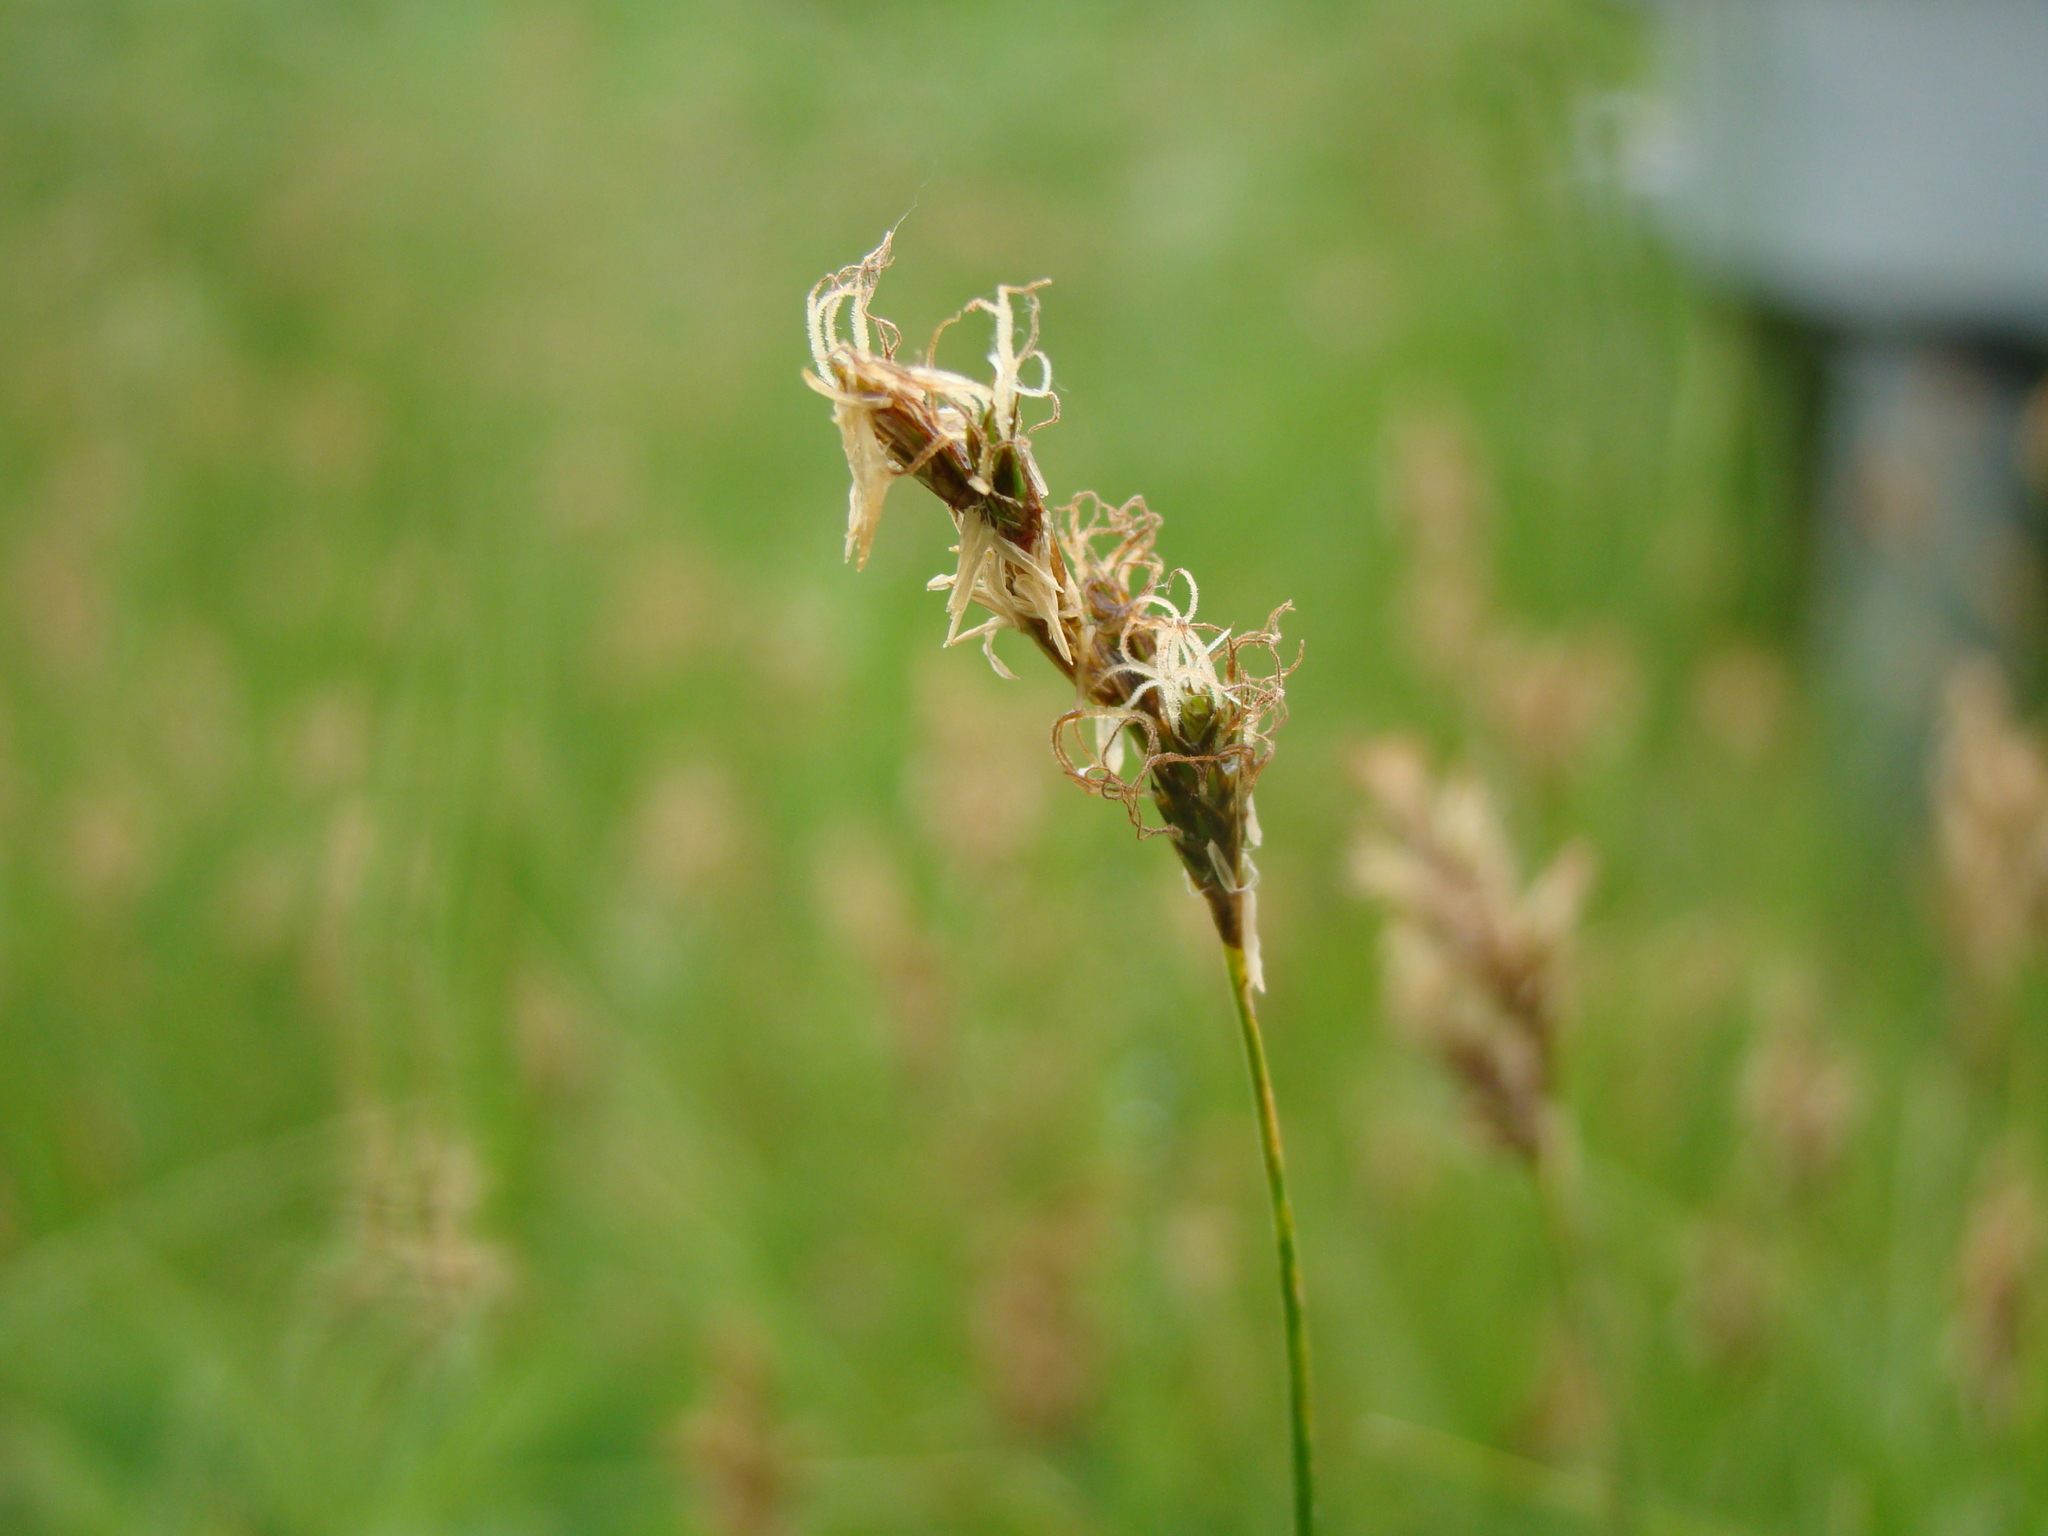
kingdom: Plantae
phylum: Tracheophyta
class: Liliopsida
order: Poales
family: Cyperaceae
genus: Carex
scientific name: Carex praecox
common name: Early sedge
